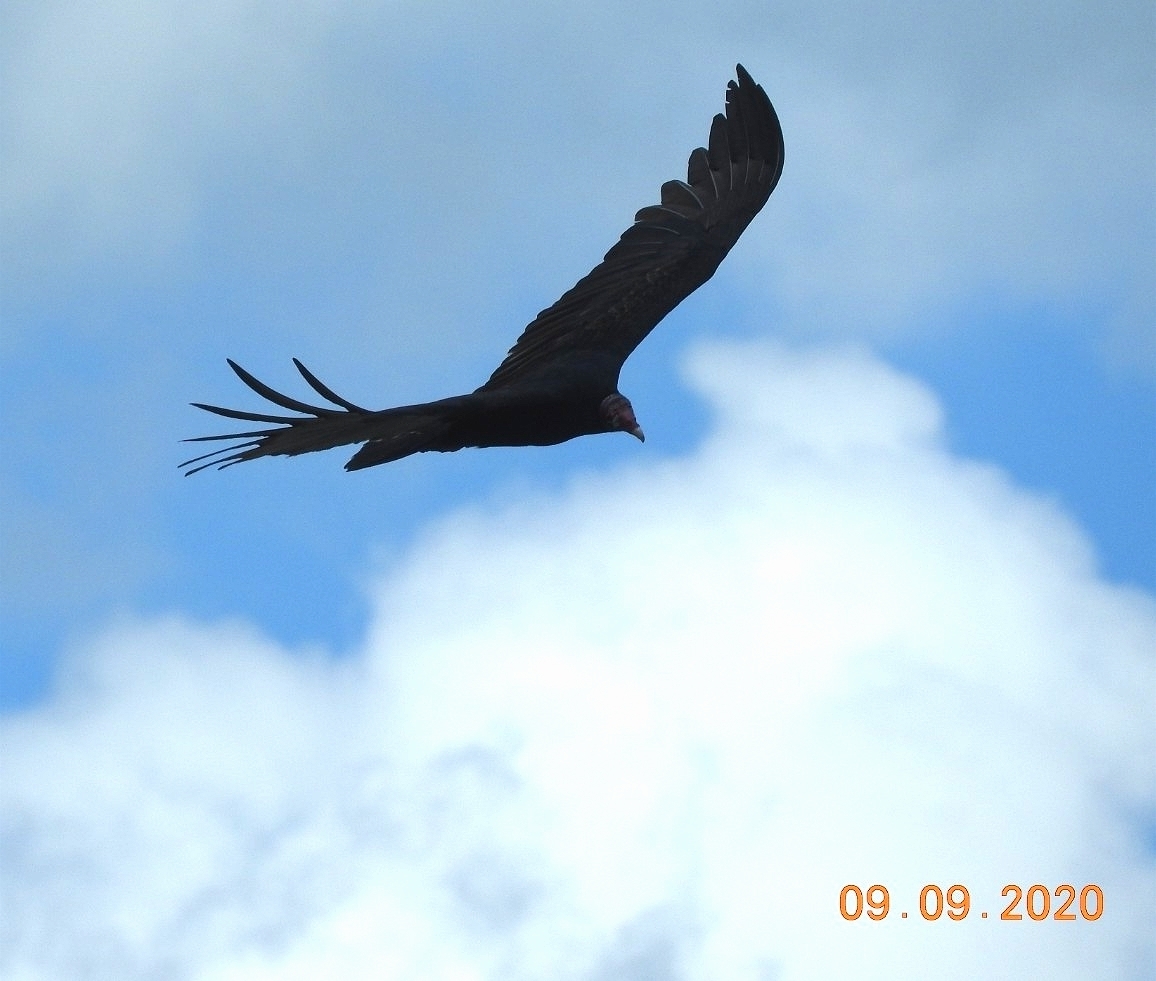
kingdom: Animalia
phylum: Chordata
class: Aves
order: Accipitriformes
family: Cathartidae
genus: Cathartes
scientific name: Cathartes aura
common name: Turkey vulture
